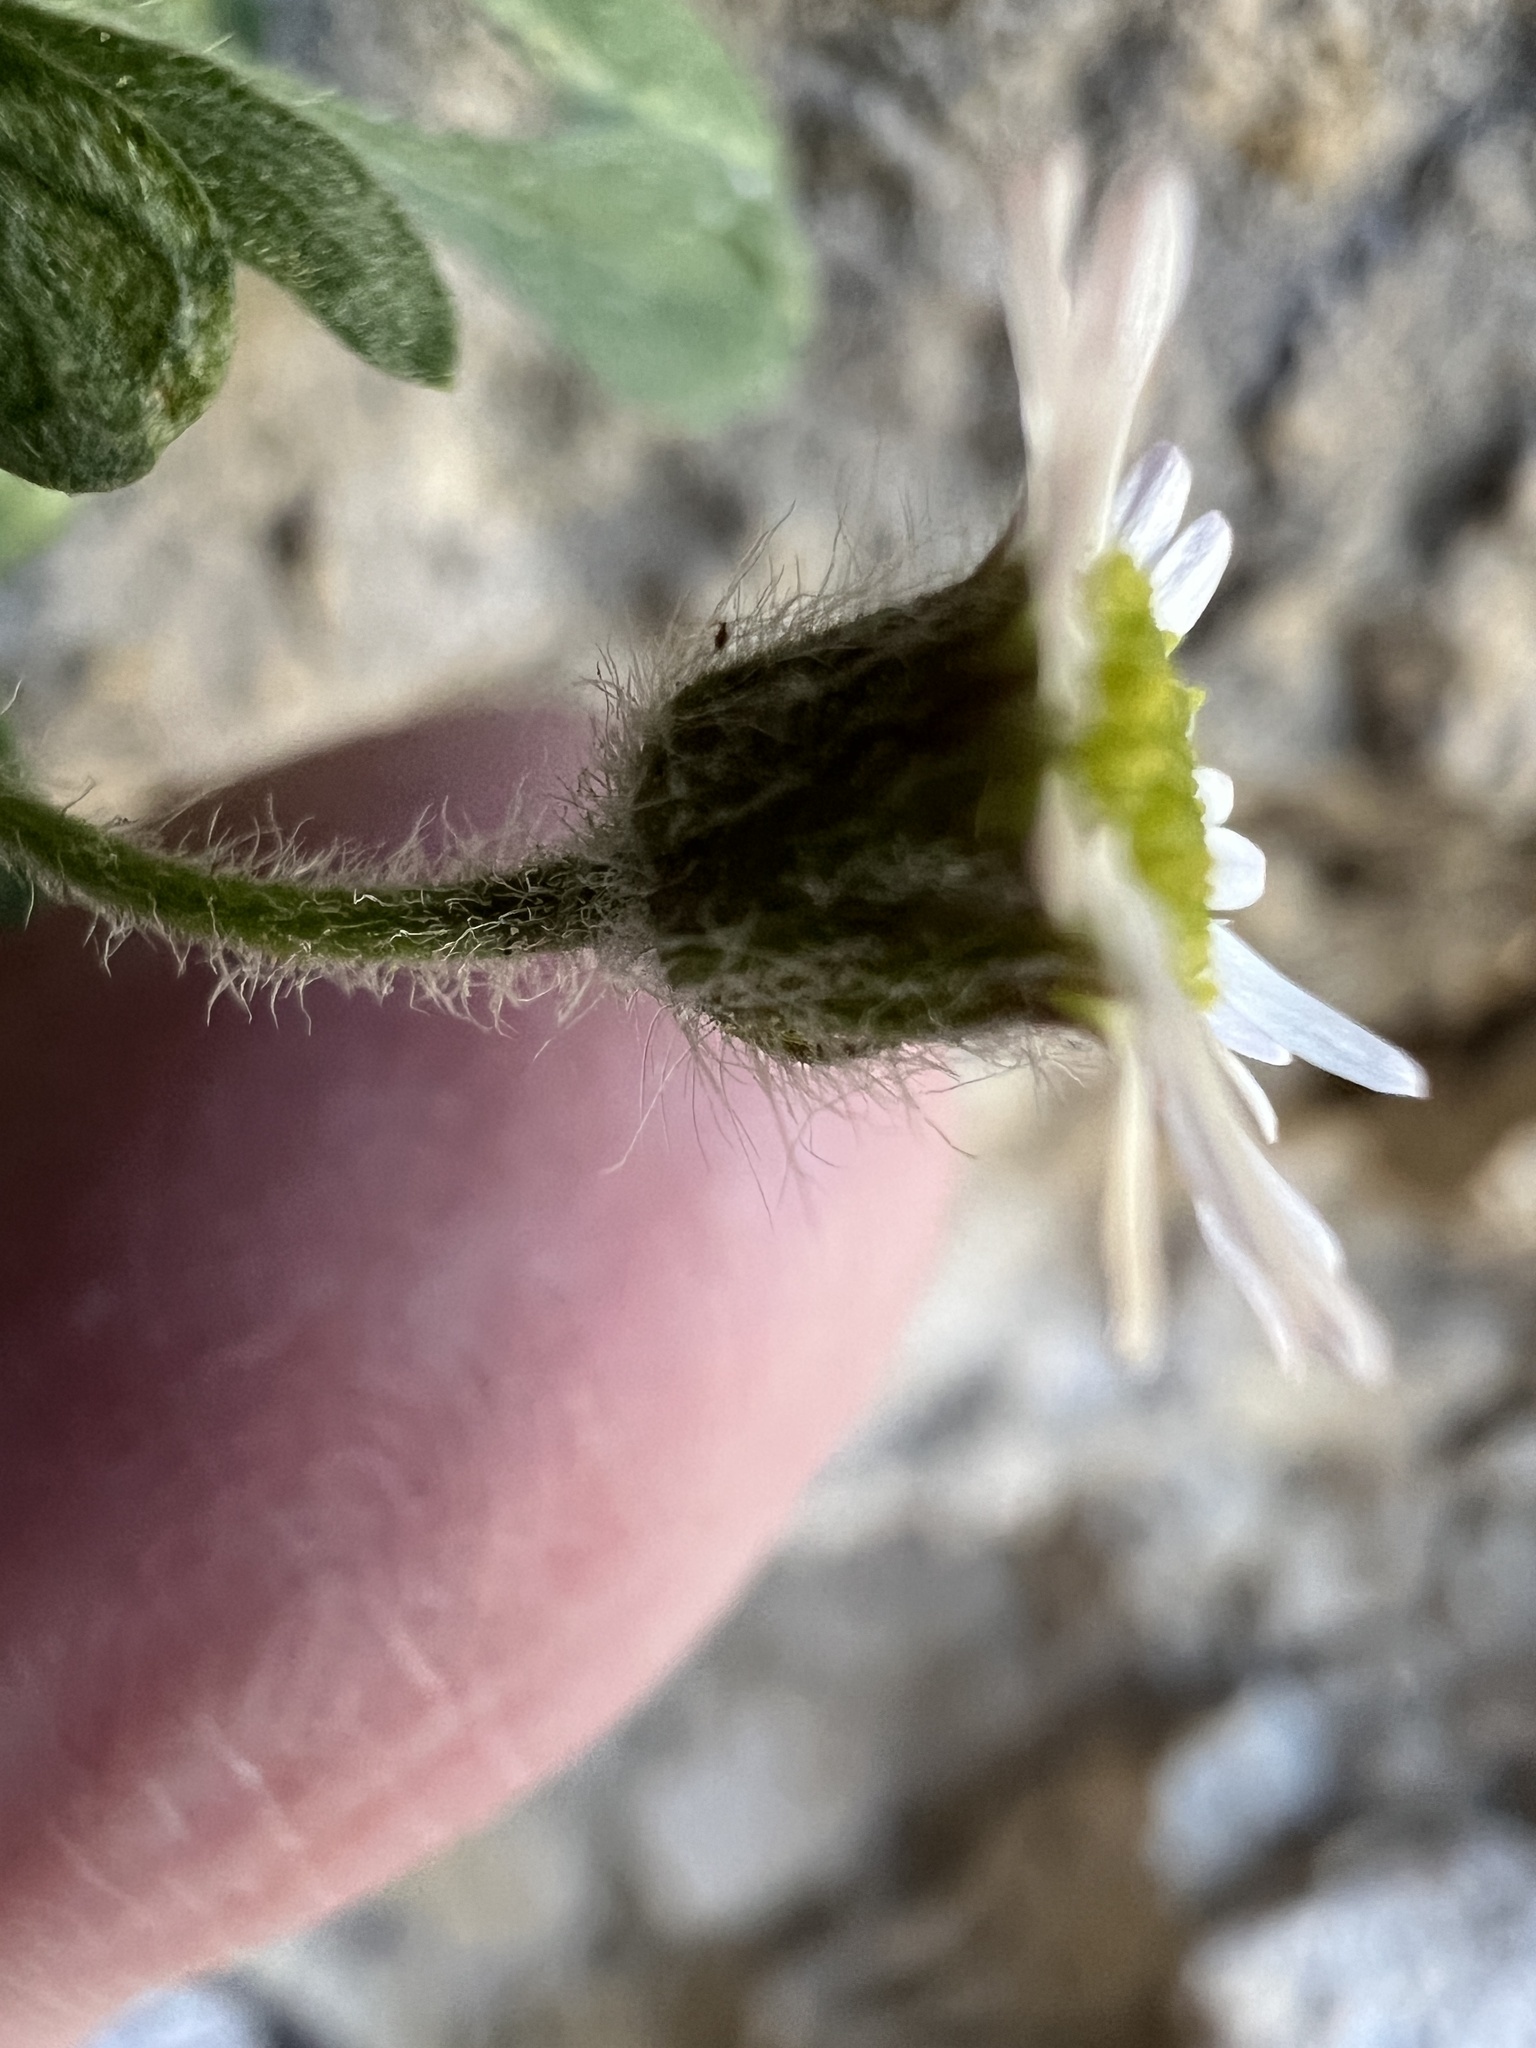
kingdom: Plantae
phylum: Tracheophyta
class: Magnoliopsida
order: Asterales
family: Asteraceae
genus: Erigeron
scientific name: Erigeron uncialis
